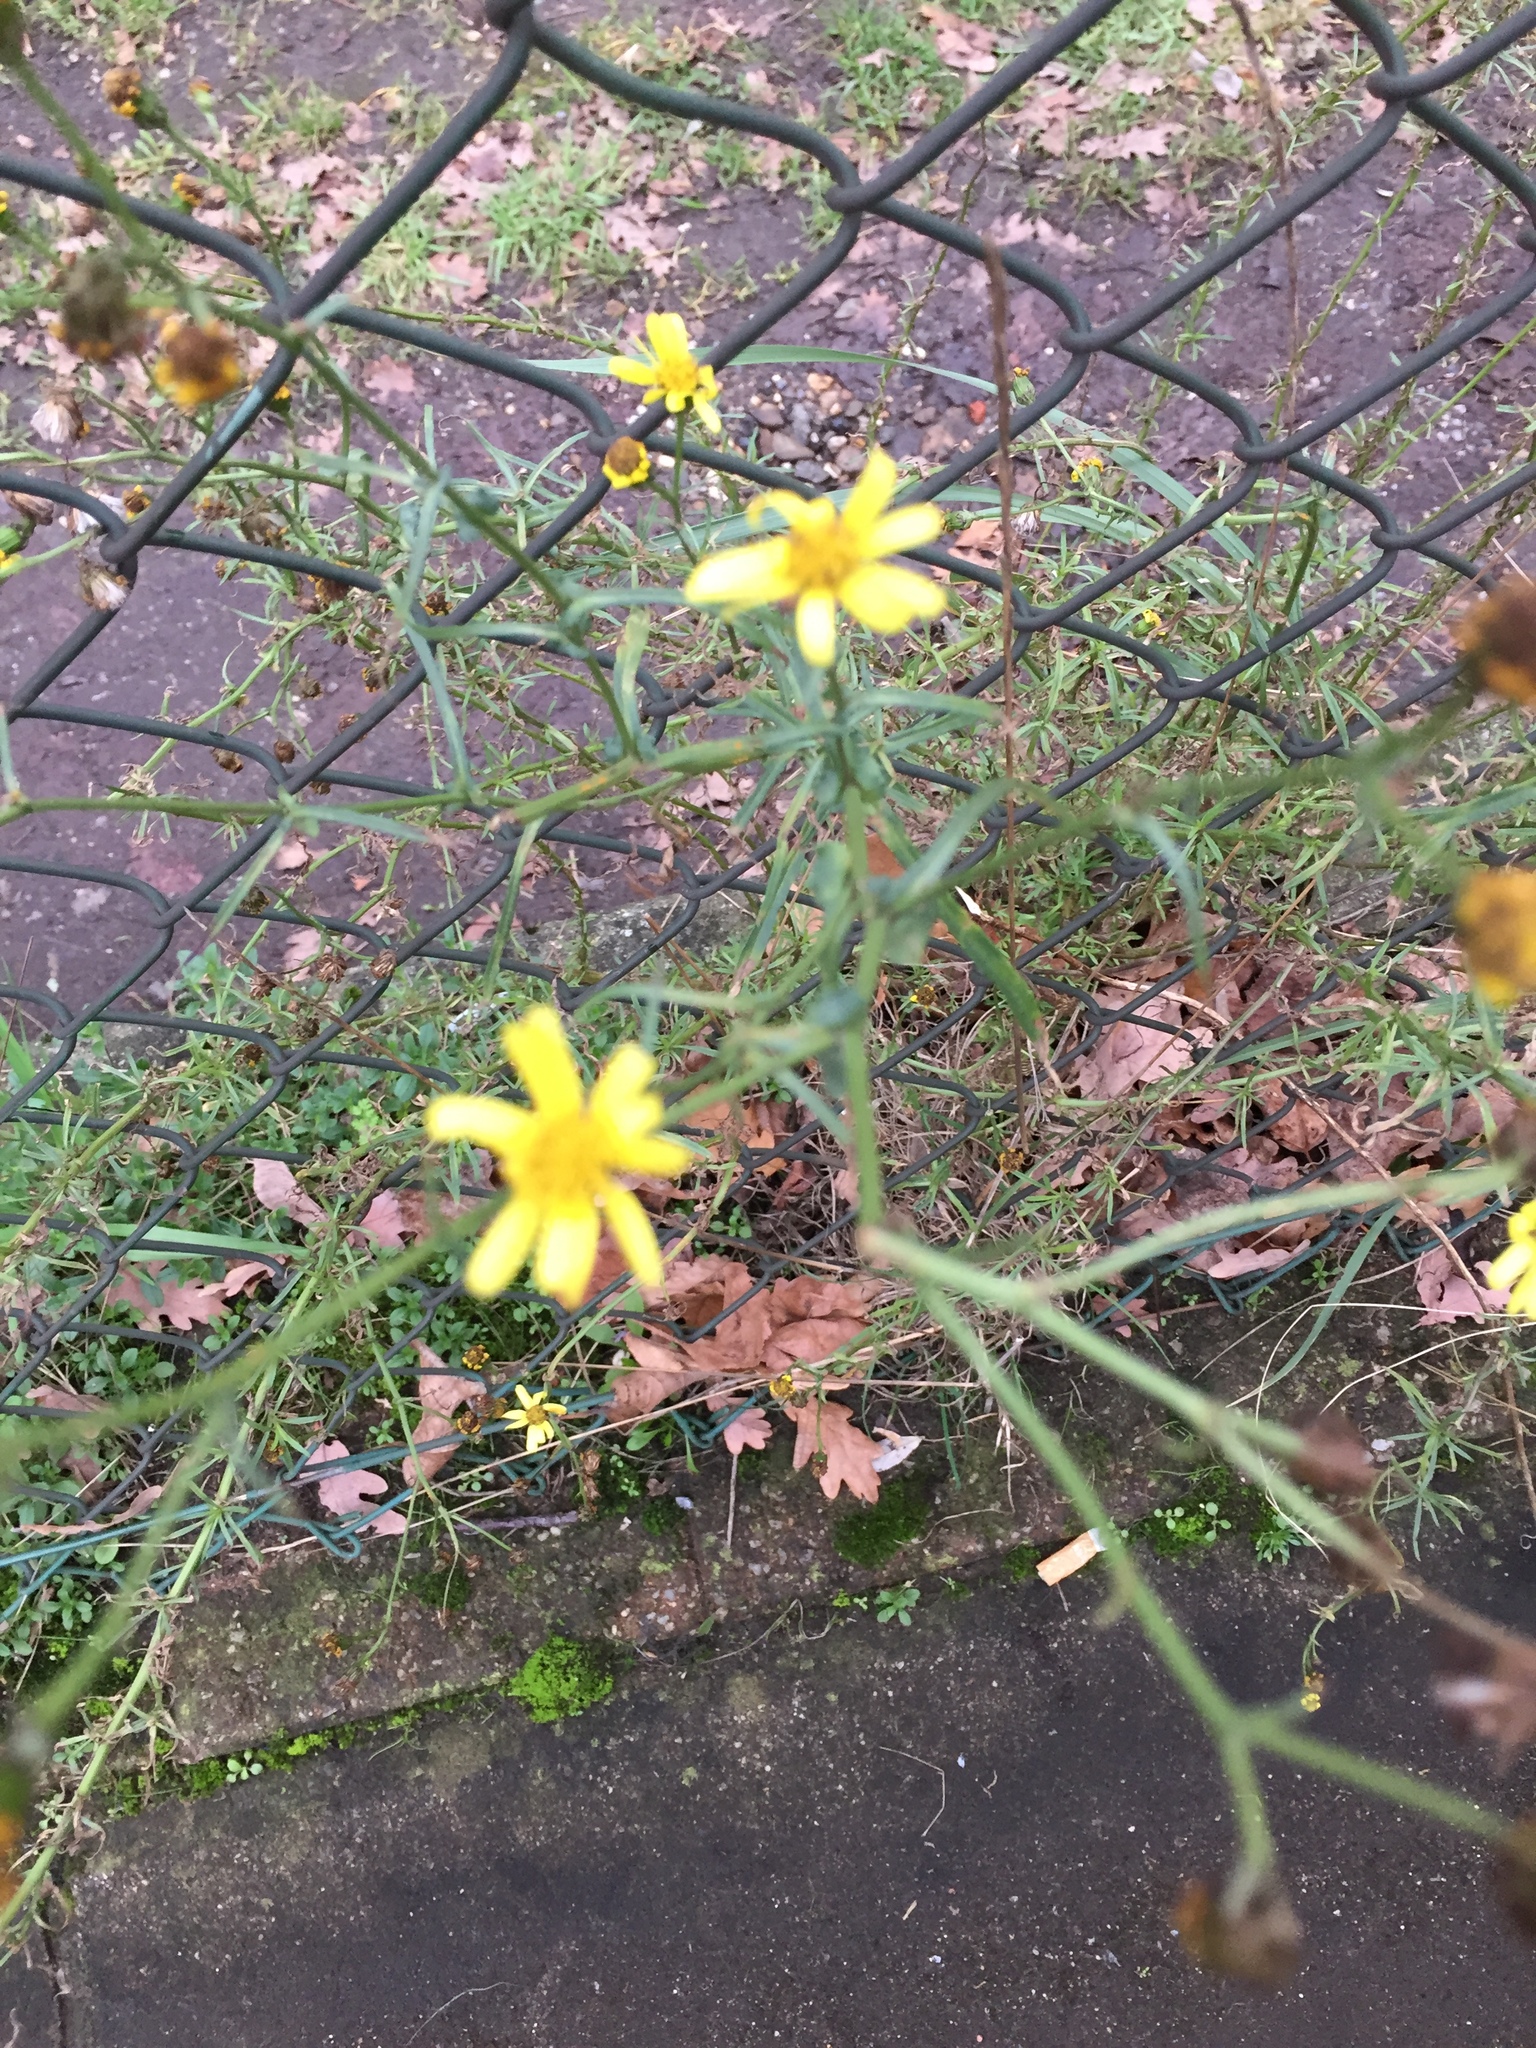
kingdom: Plantae
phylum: Tracheophyta
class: Magnoliopsida
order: Asterales
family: Asteraceae
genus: Senecio
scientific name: Senecio inaequidens
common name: Narrow-leaved ragwort
